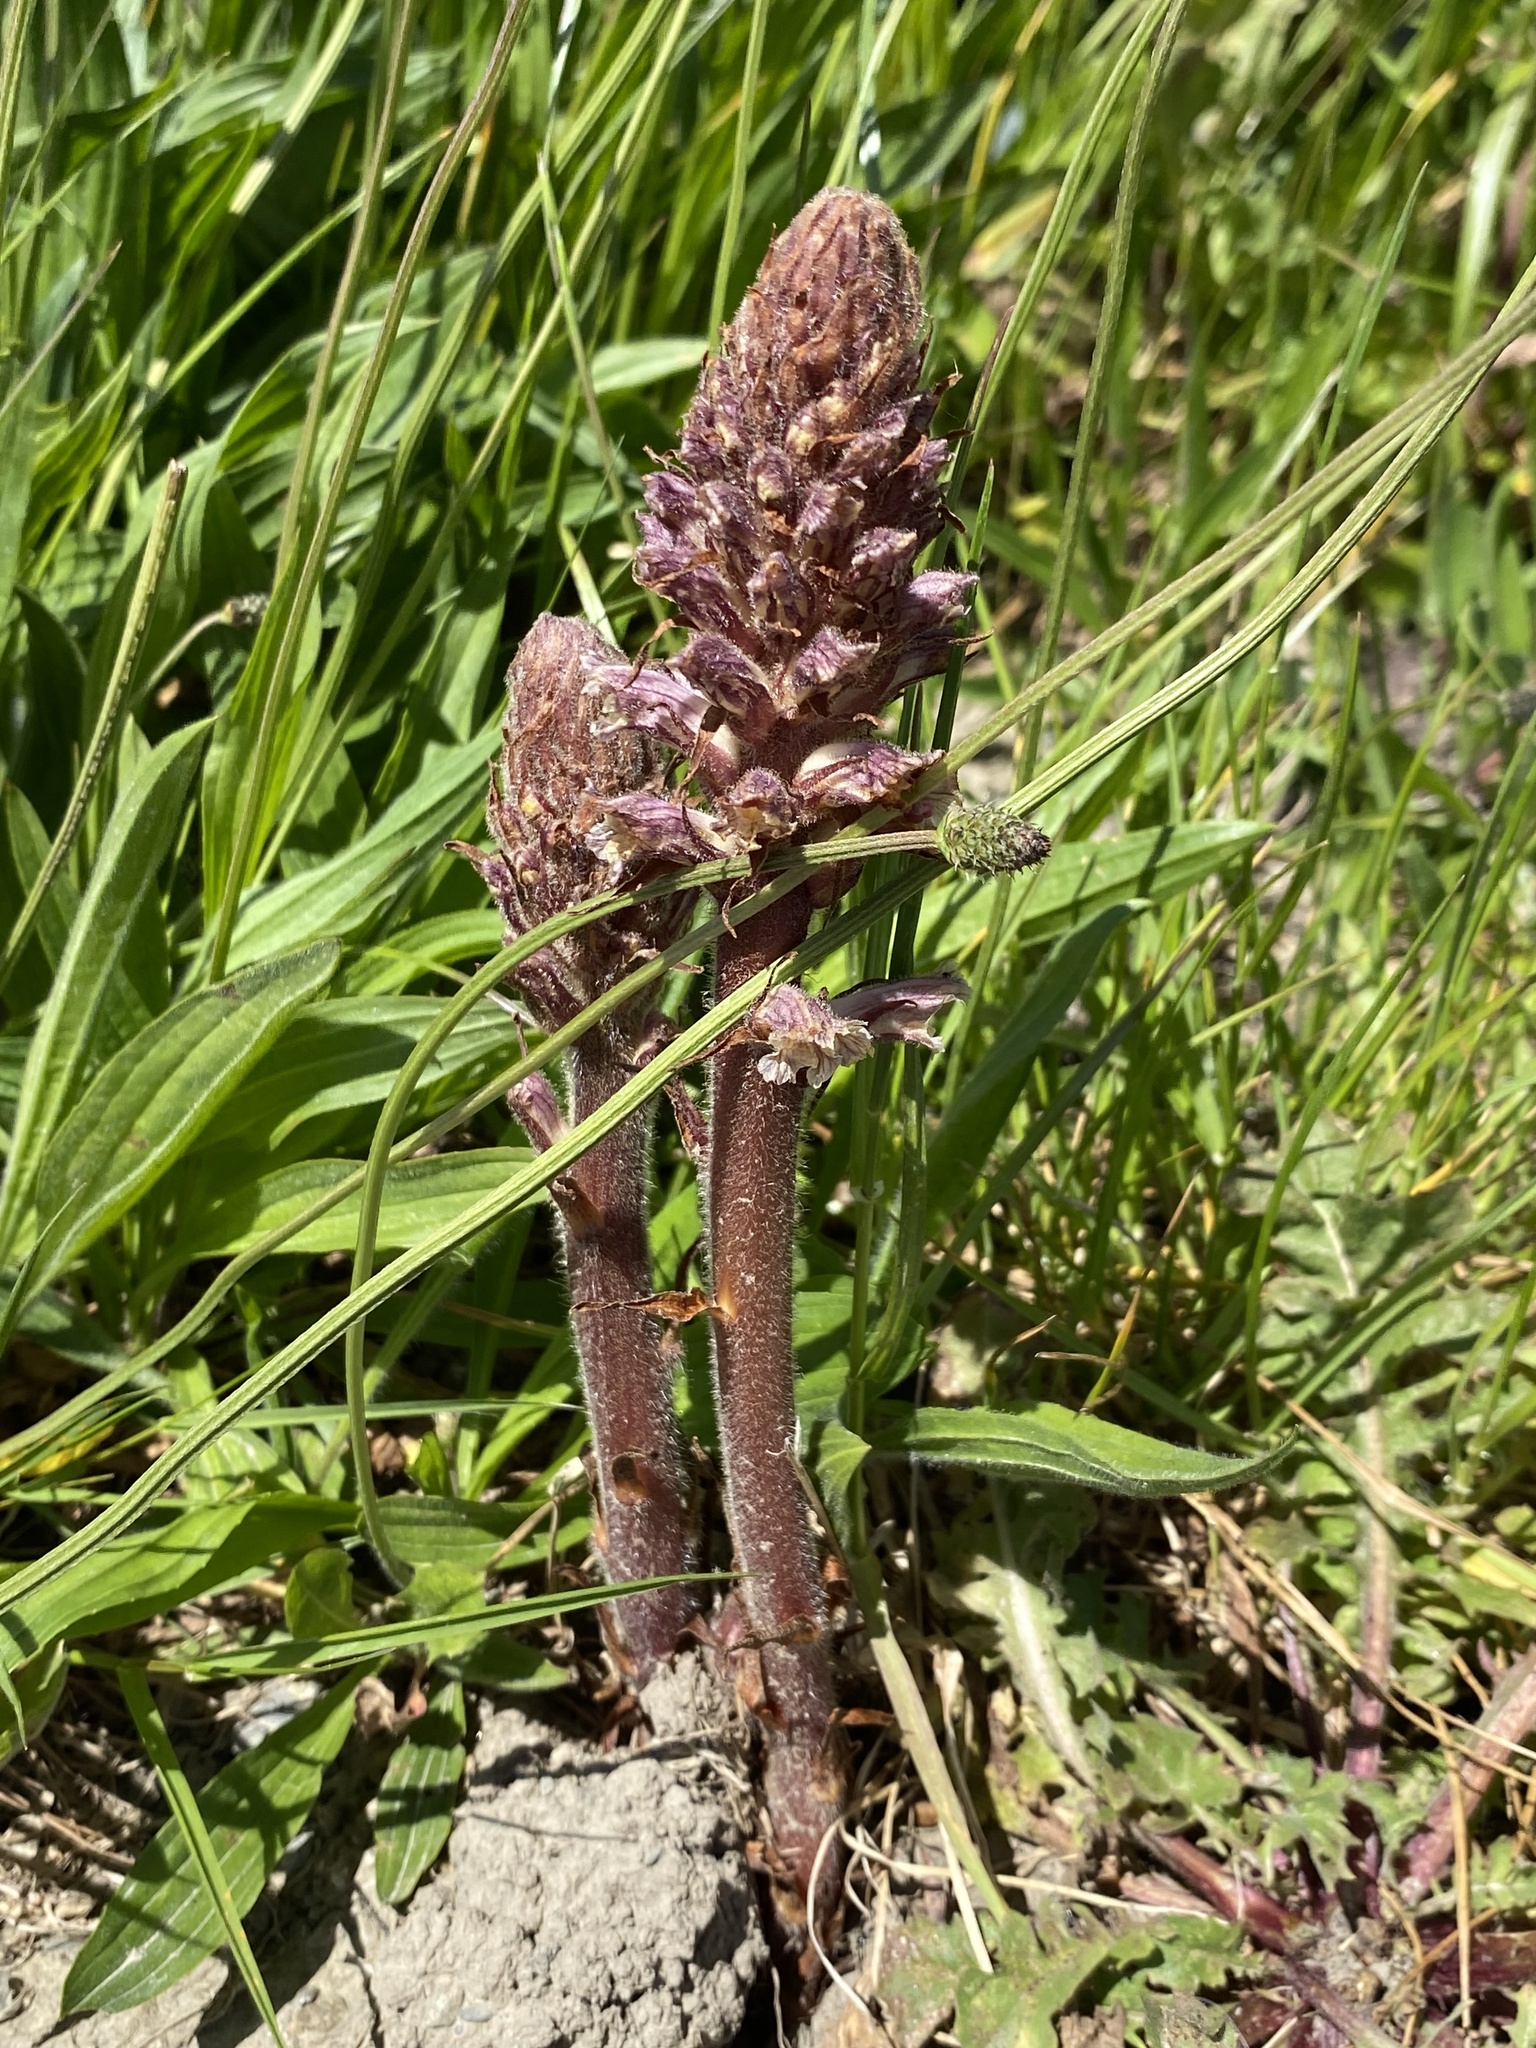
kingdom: Plantae
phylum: Tracheophyta
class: Magnoliopsida
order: Lamiales
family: Orobanchaceae
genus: Orobanche
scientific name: Orobanche minor
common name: Common broomrape
